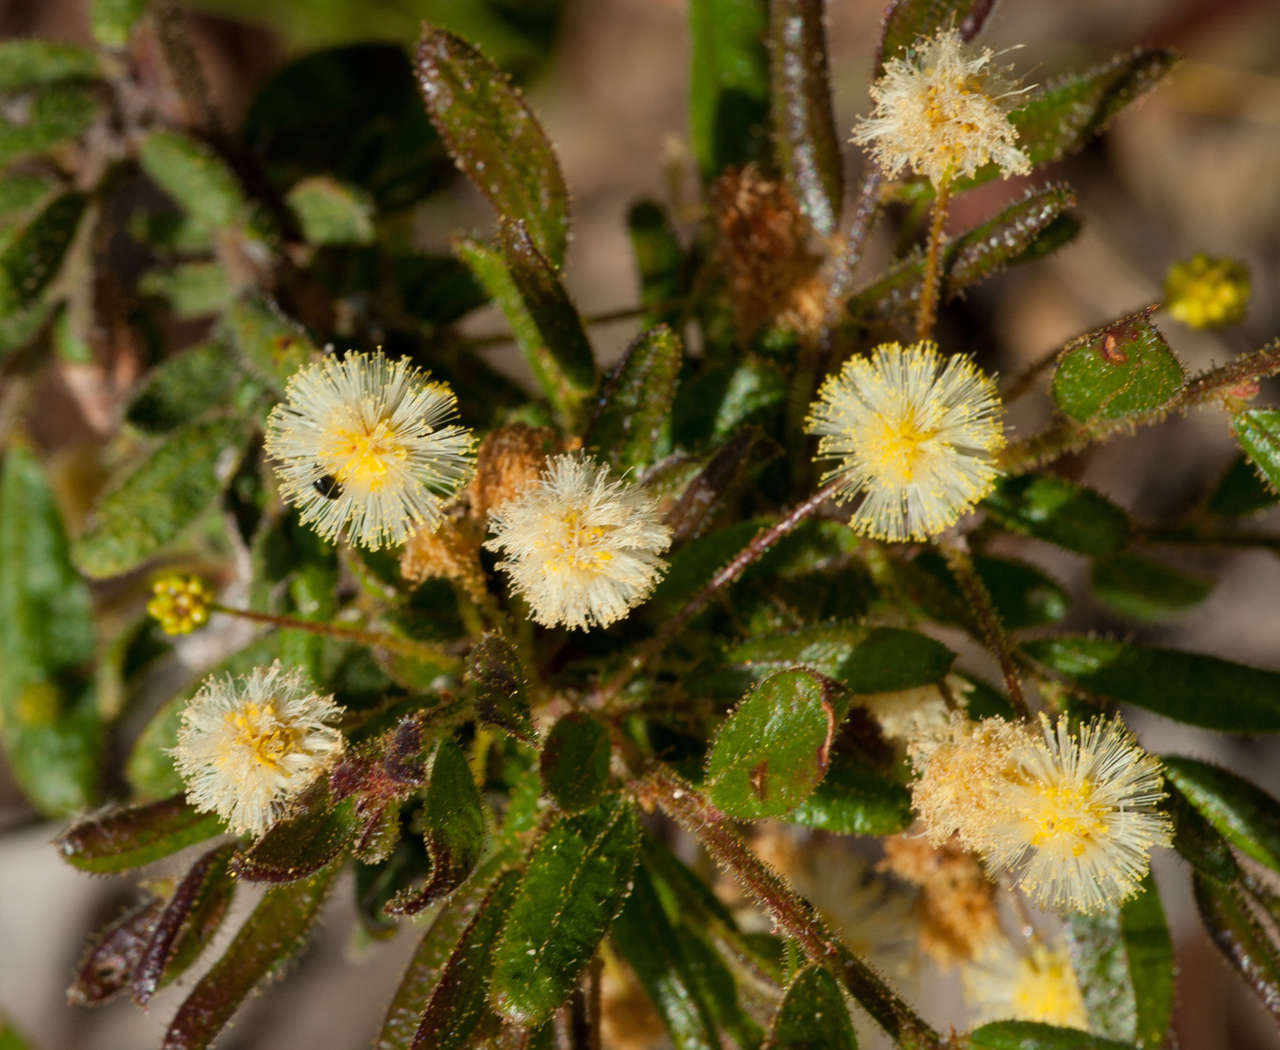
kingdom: Plantae
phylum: Tracheophyta
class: Magnoliopsida
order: Fabales
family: Fabaceae
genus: Acacia
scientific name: Acacia aspera
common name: Rough wattle
